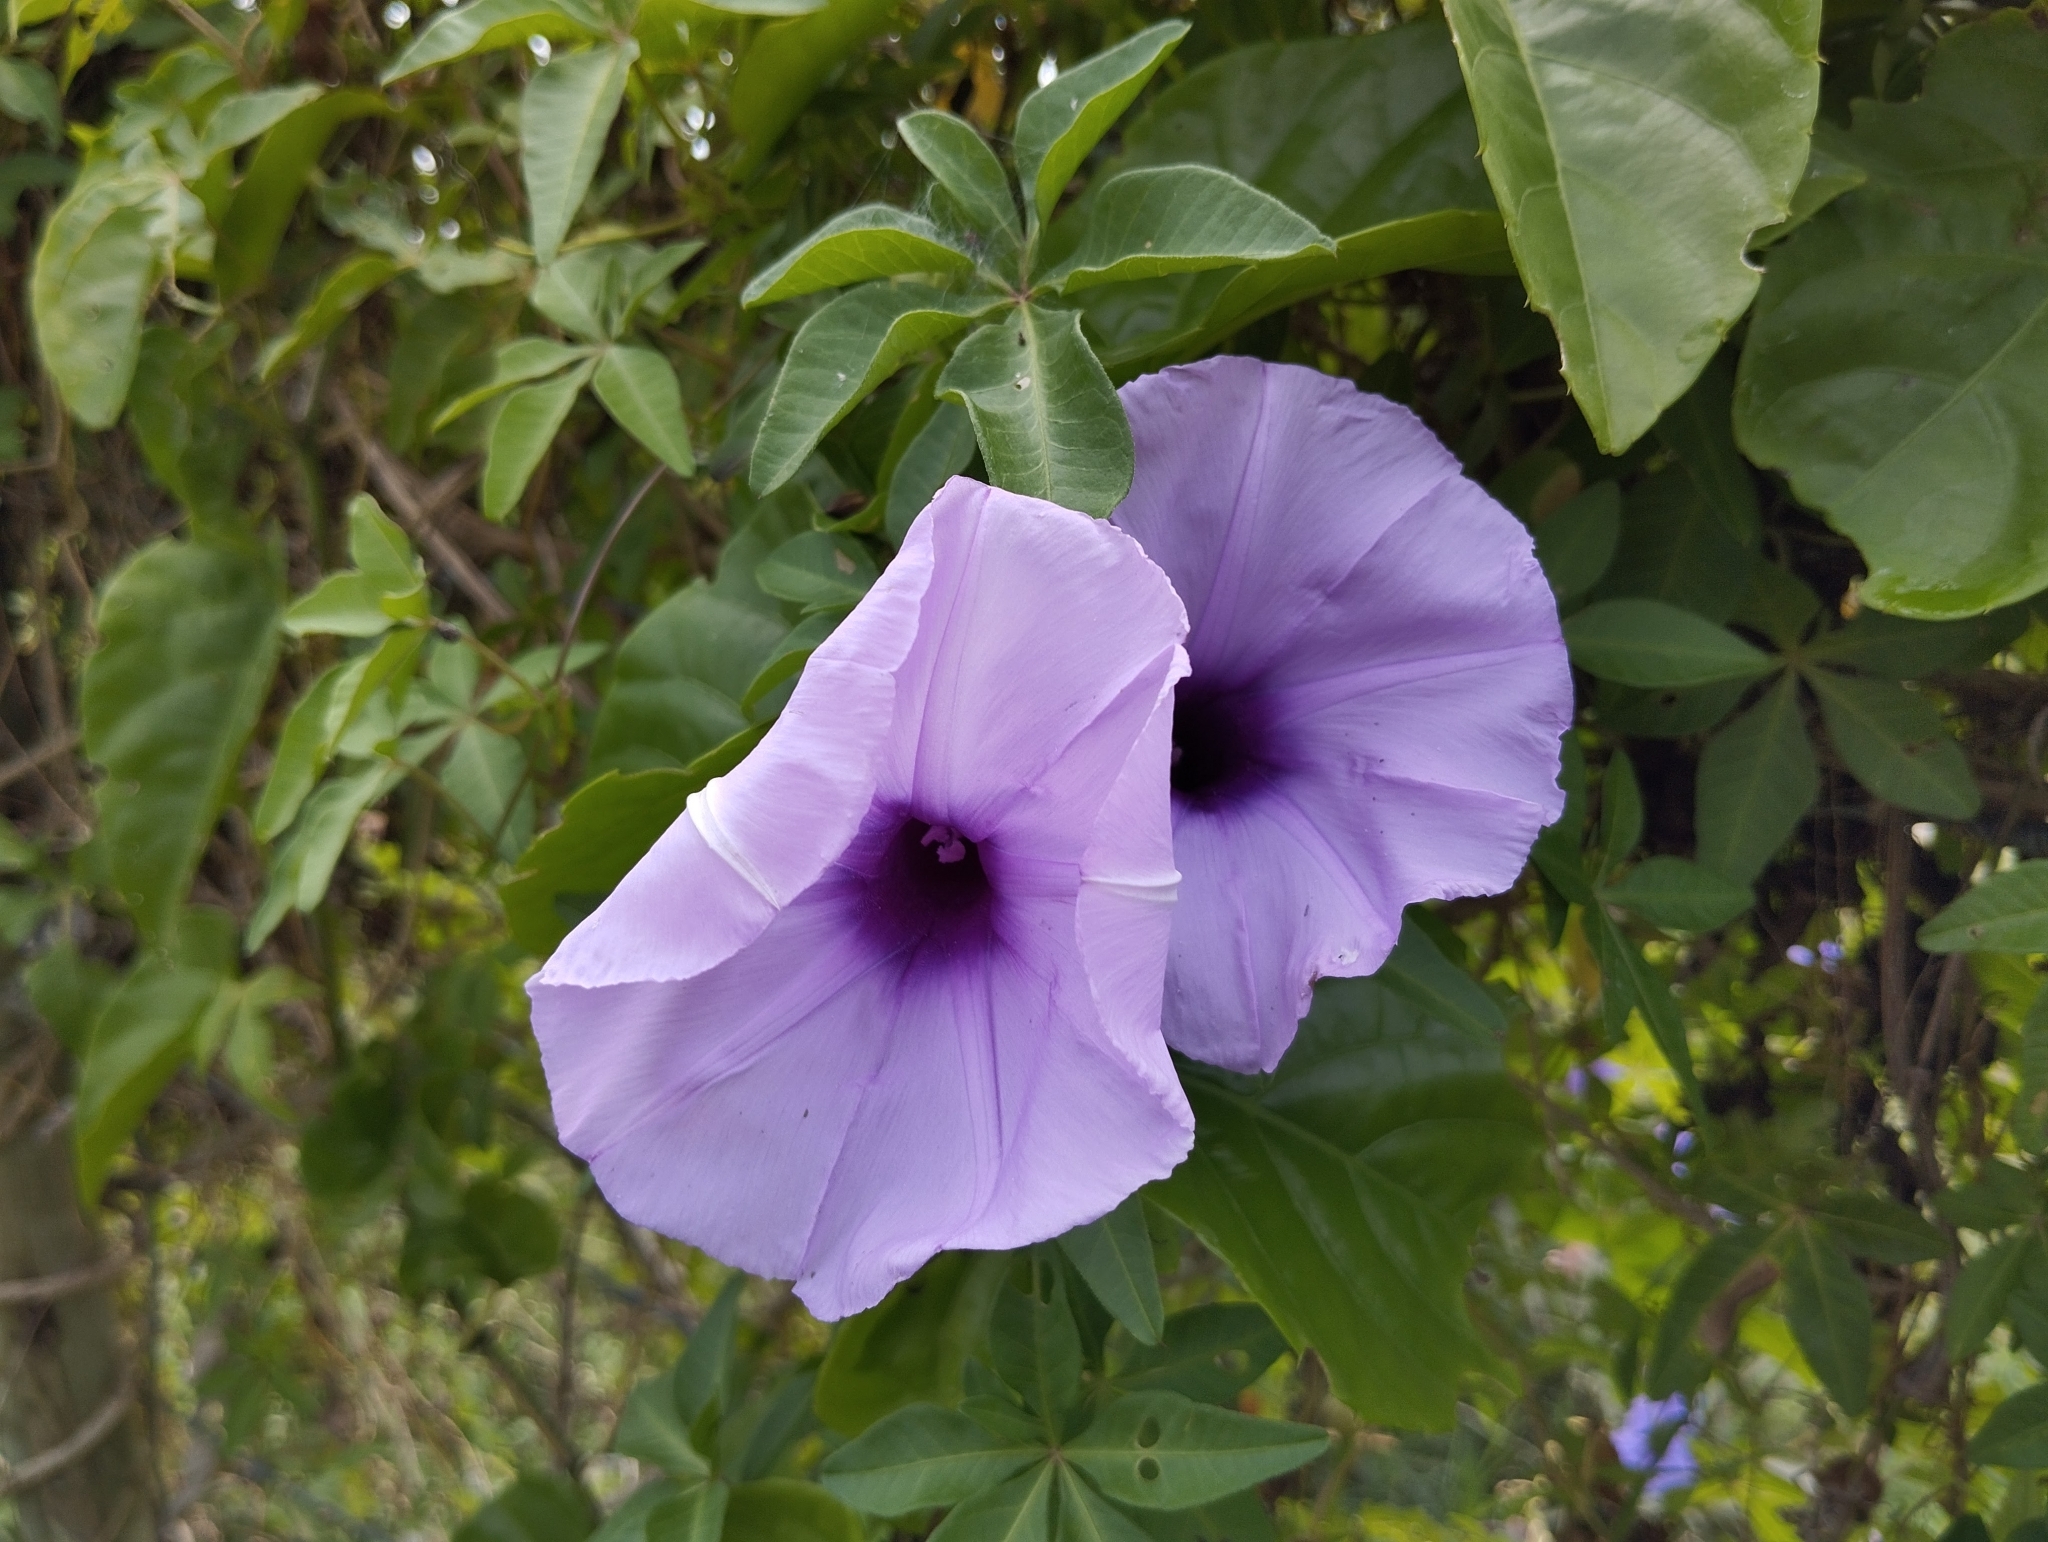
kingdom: Plantae
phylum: Tracheophyta
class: Magnoliopsida
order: Solanales
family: Convolvulaceae
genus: Ipomoea
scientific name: Ipomoea cairica
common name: Mile a minute vine
